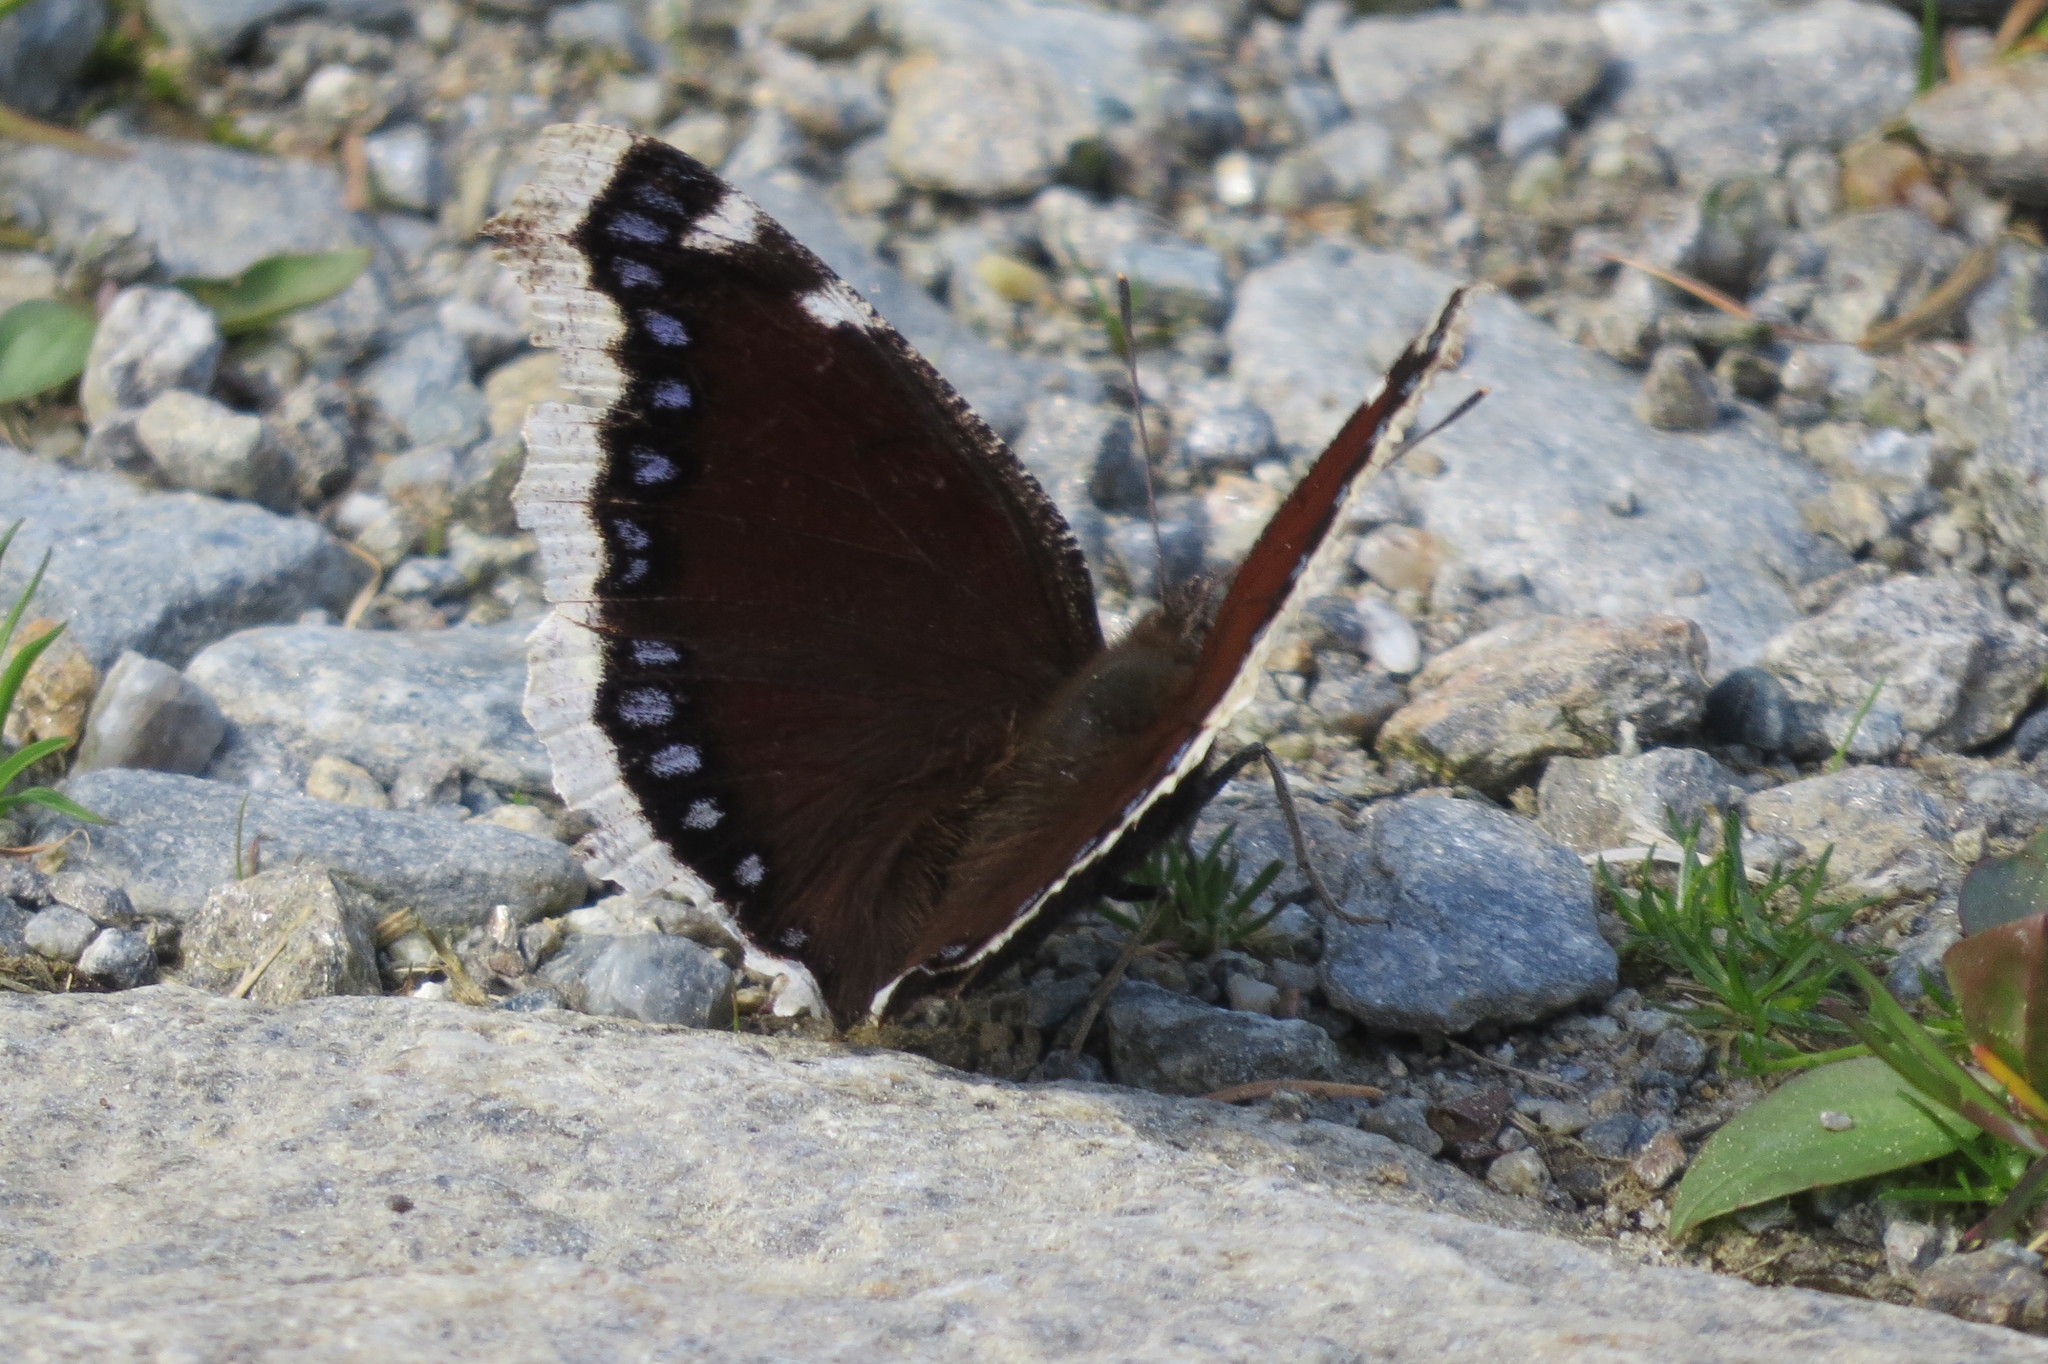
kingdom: Animalia
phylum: Arthropoda
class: Insecta
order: Lepidoptera
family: Nymphalidae
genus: Nymphalis
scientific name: Nymphalis antiopa
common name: Camberwell beauty
